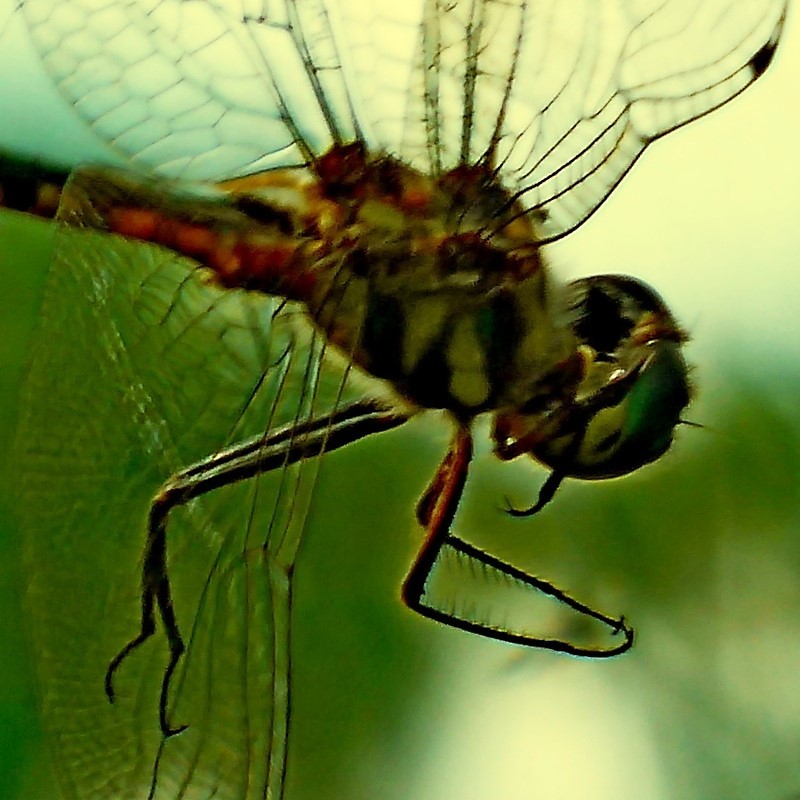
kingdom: Animalia
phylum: Arthropoda
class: Insecta
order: Odonata
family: Corduliidae
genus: Hemicordulia
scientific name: Hemicordulia australiae
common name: Sentry dragonfly
